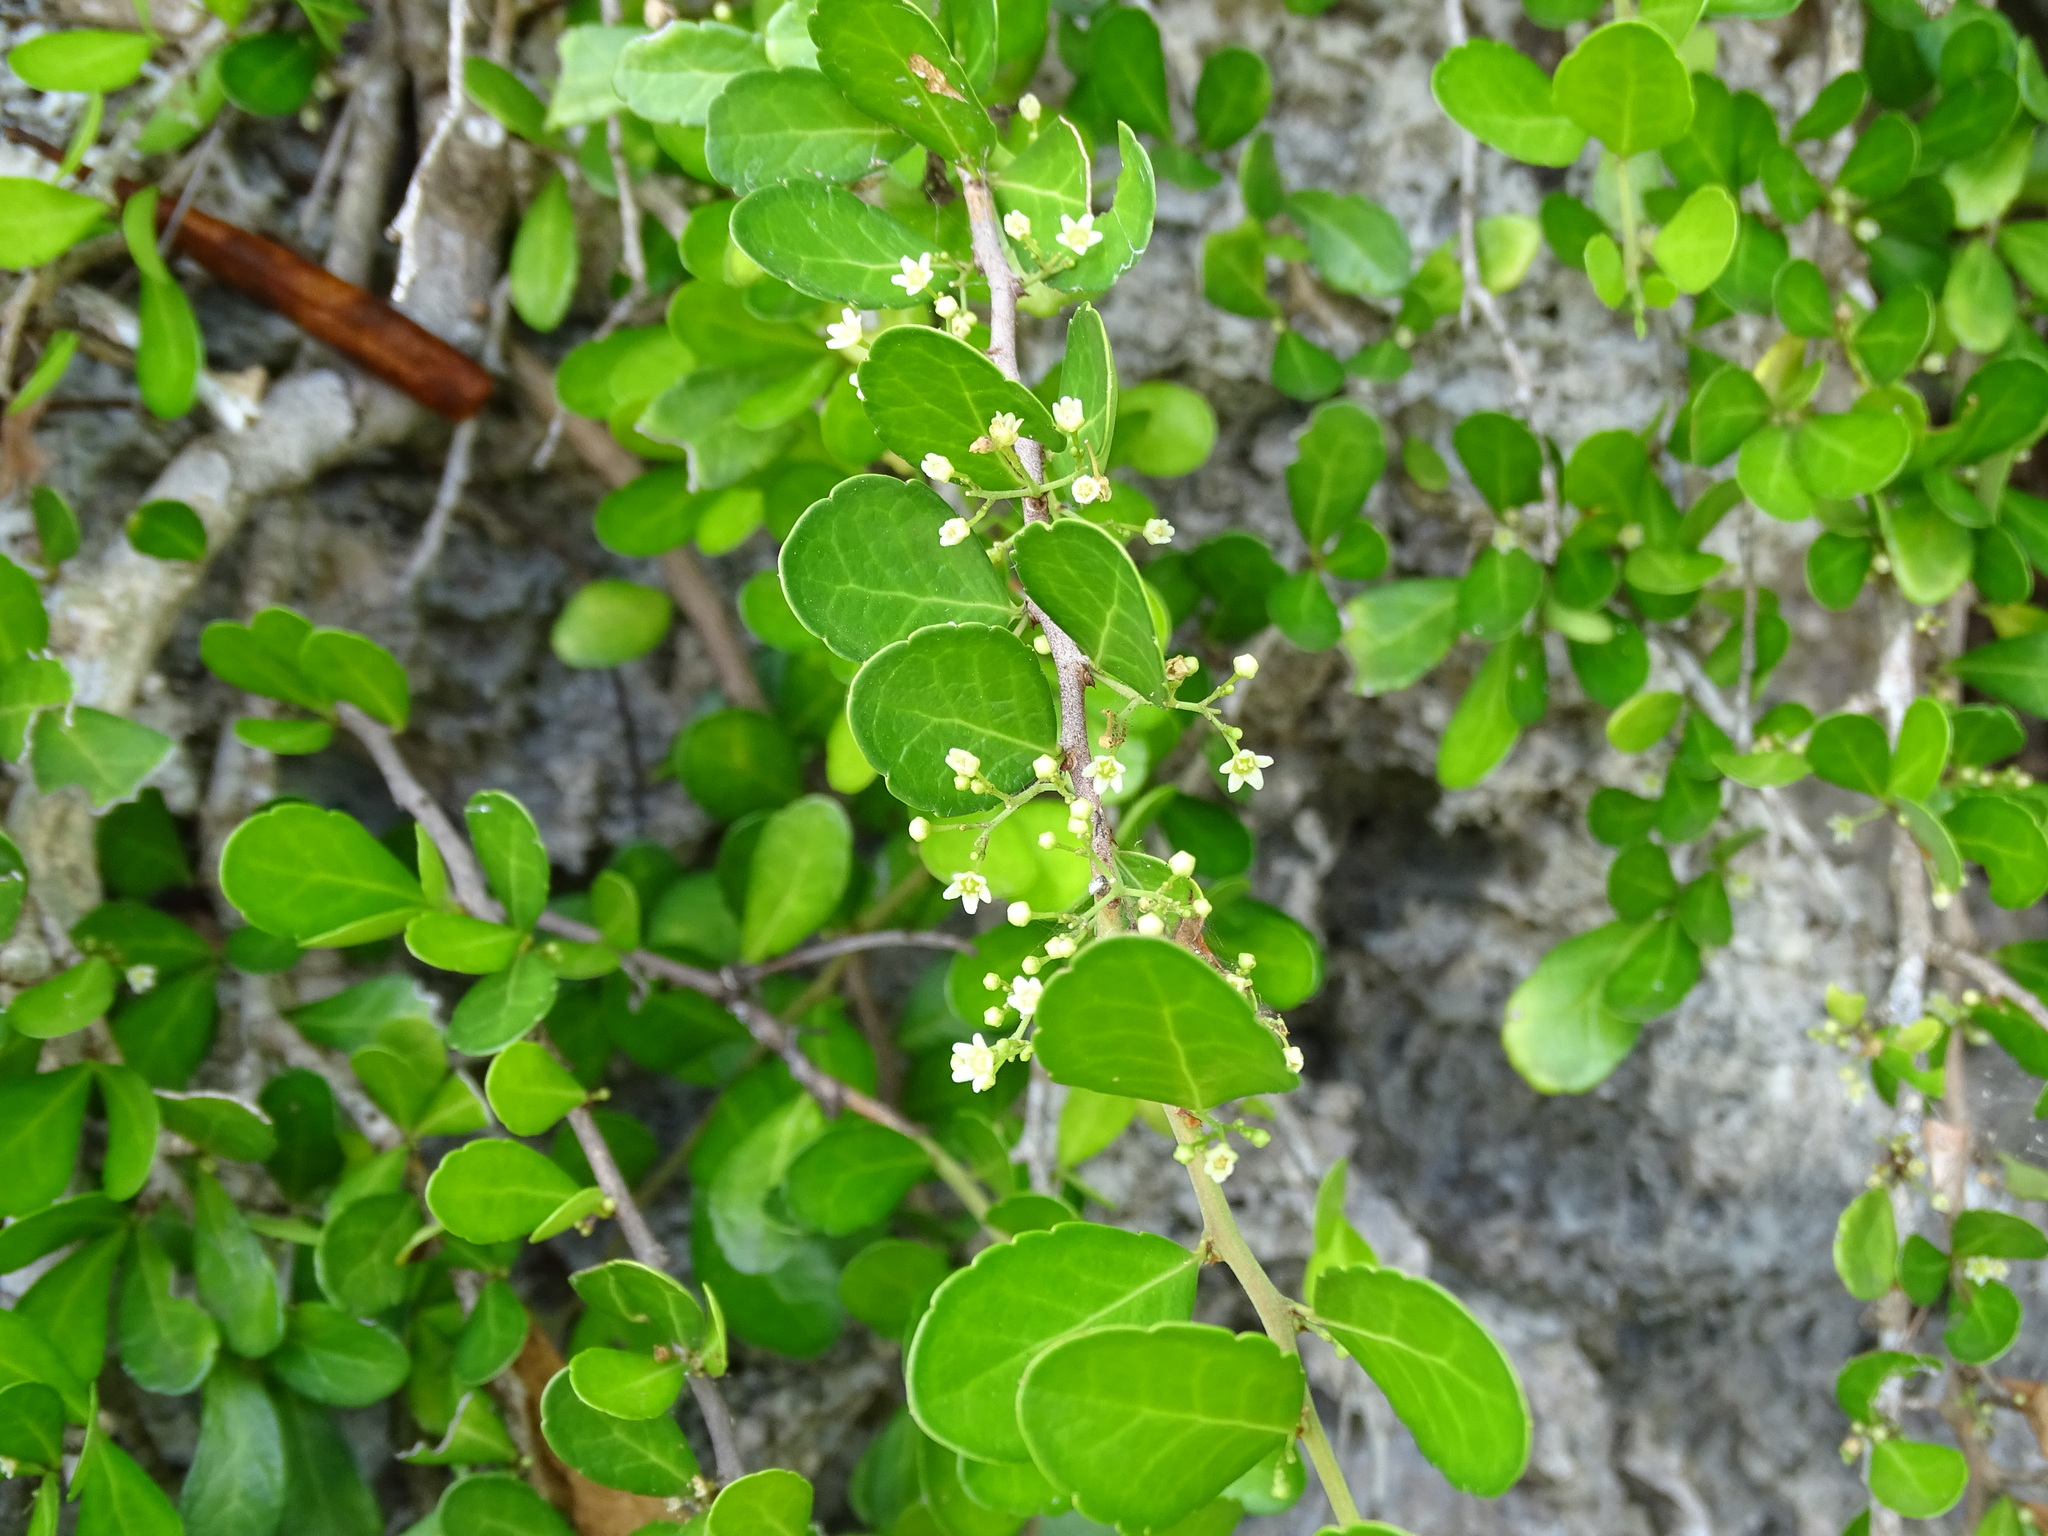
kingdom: Plantae
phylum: Tracheophyta
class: Magnoliopsida
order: Celastrales
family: Celastraceae
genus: Gymnosporia
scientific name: Gymnosporia diversifolia
